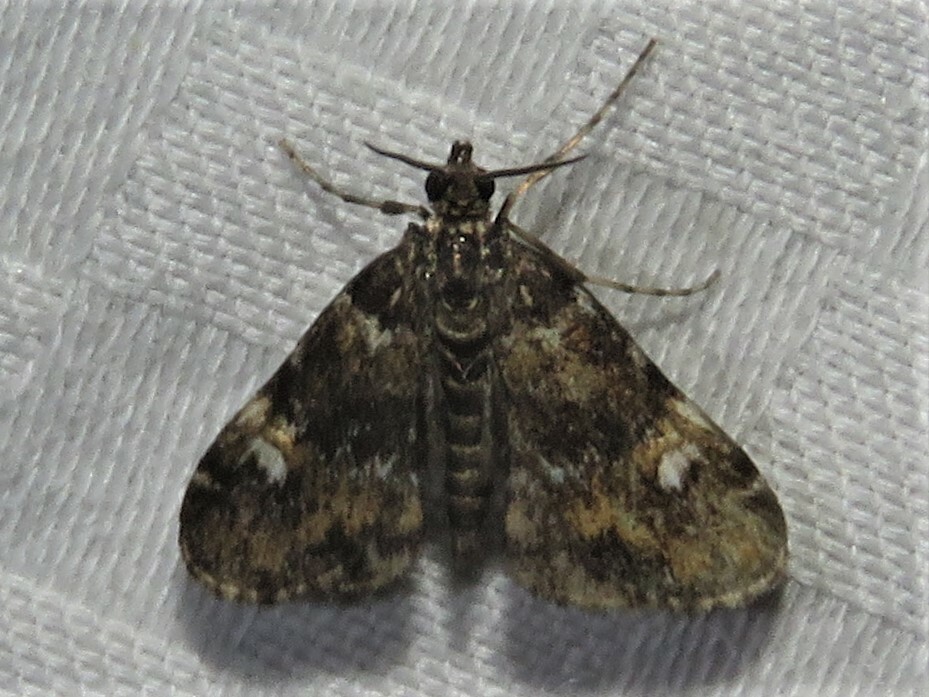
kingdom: Animalia
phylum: Arthropoda
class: Insecta
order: Lepidoptera
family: Crambidae
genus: Elophila
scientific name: Elophila obliteralis
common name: Waterlily leafcutter moth
